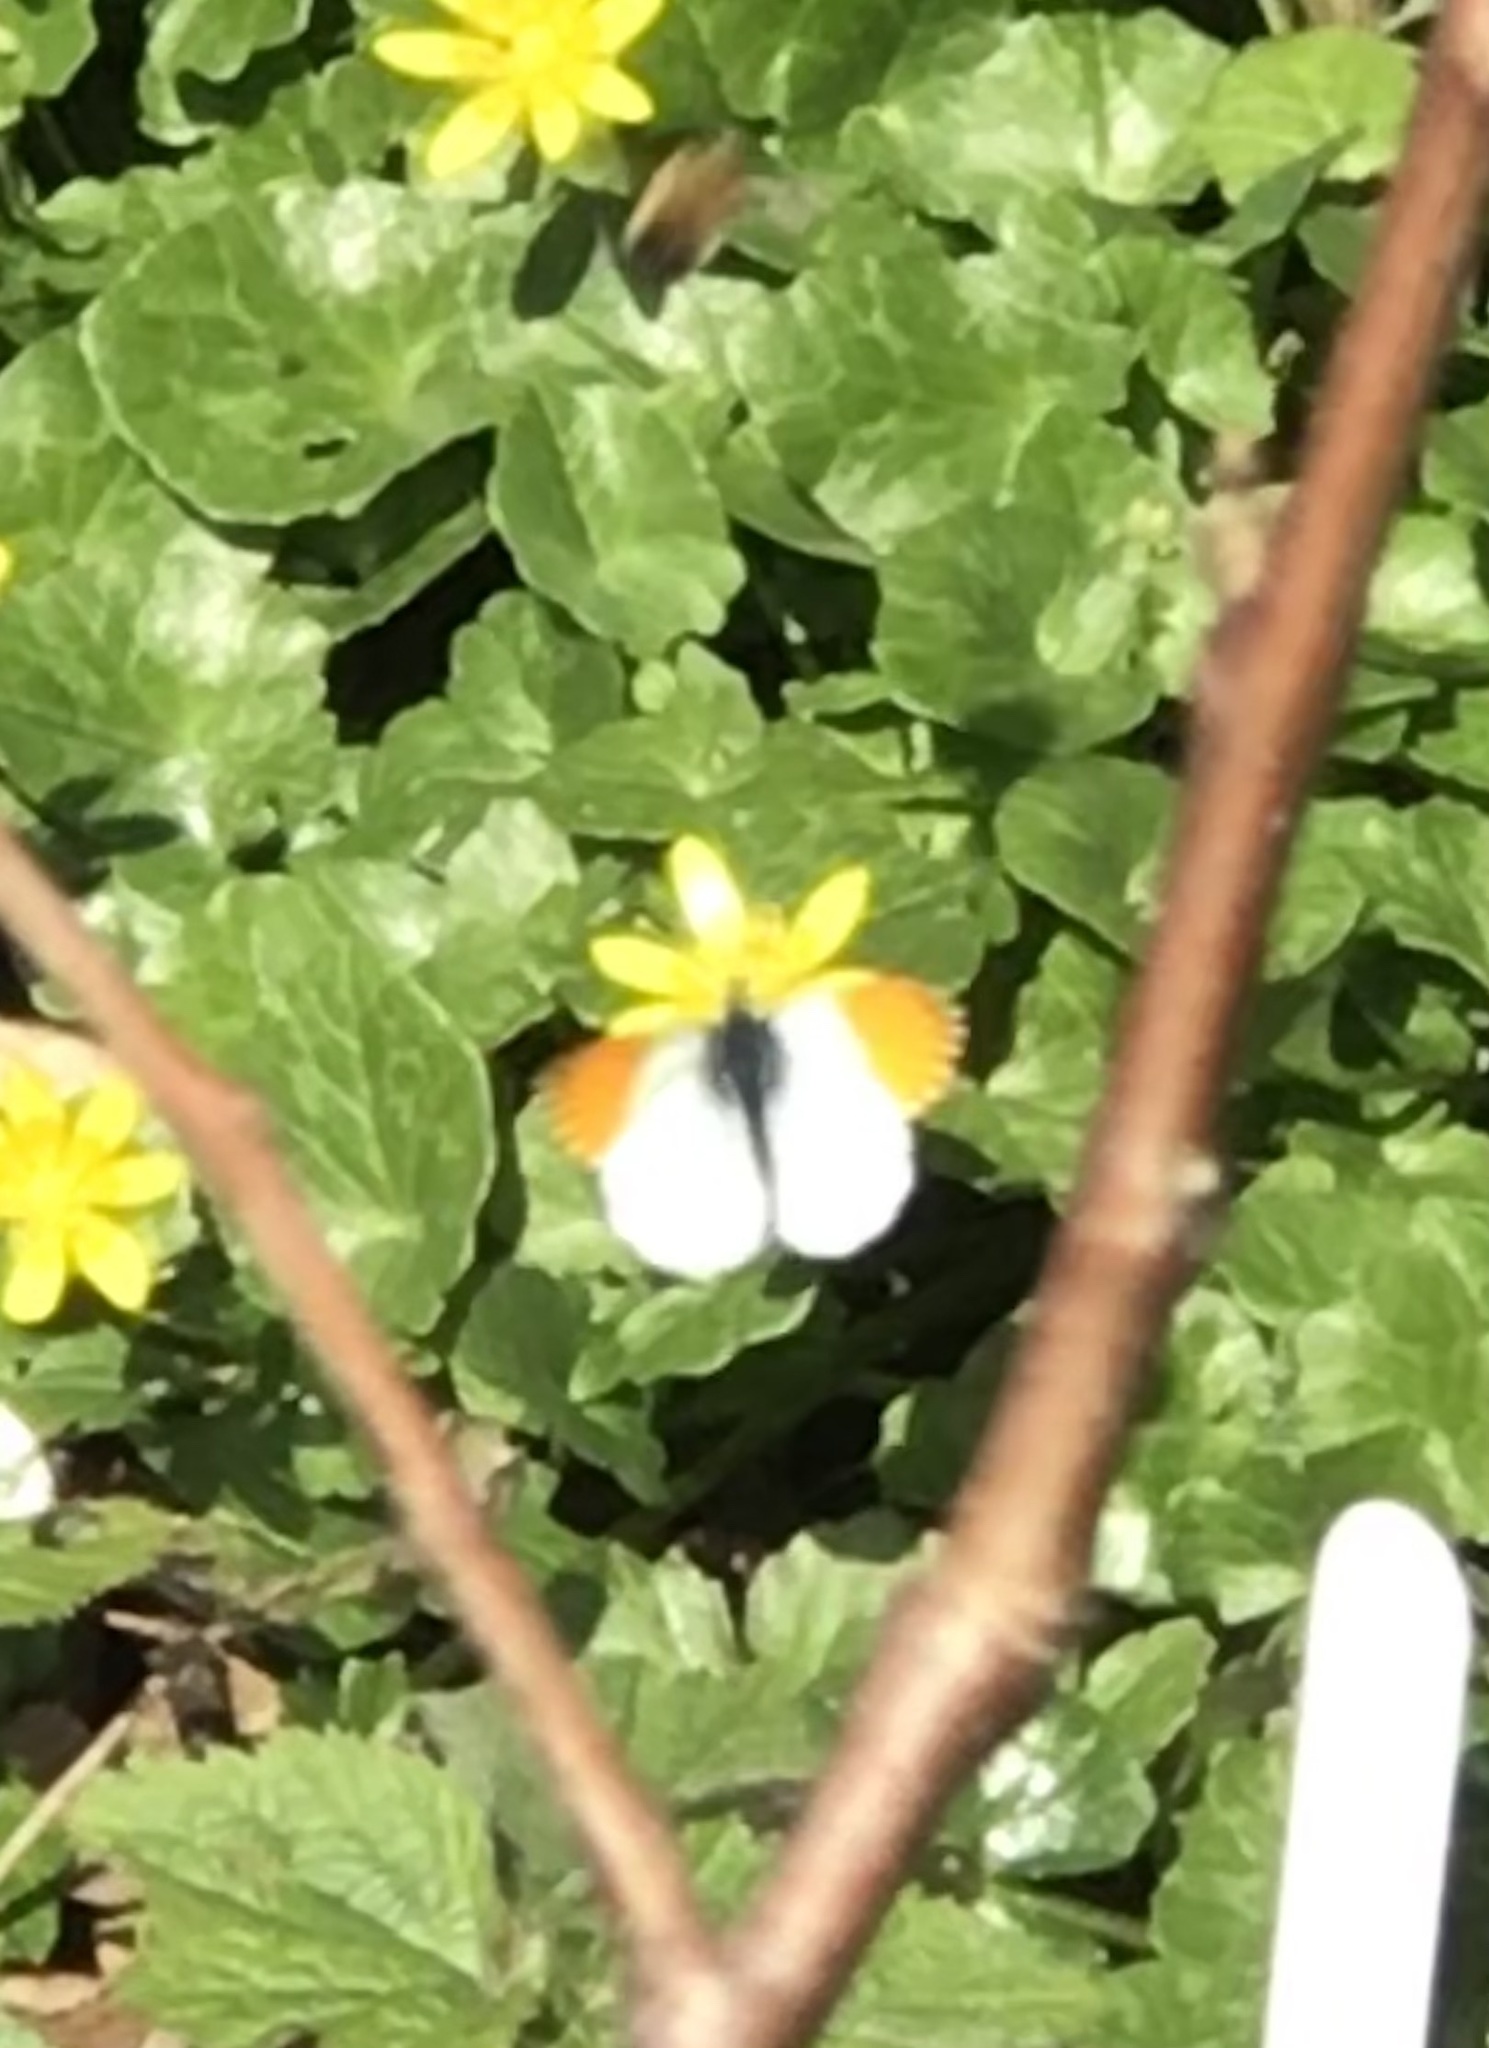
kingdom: Animalia
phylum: Arthropoda
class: Insecta
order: Lepidoptera
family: Pieridae
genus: Anthocharis
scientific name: Anthocharis cardamines
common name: Orange-tip
